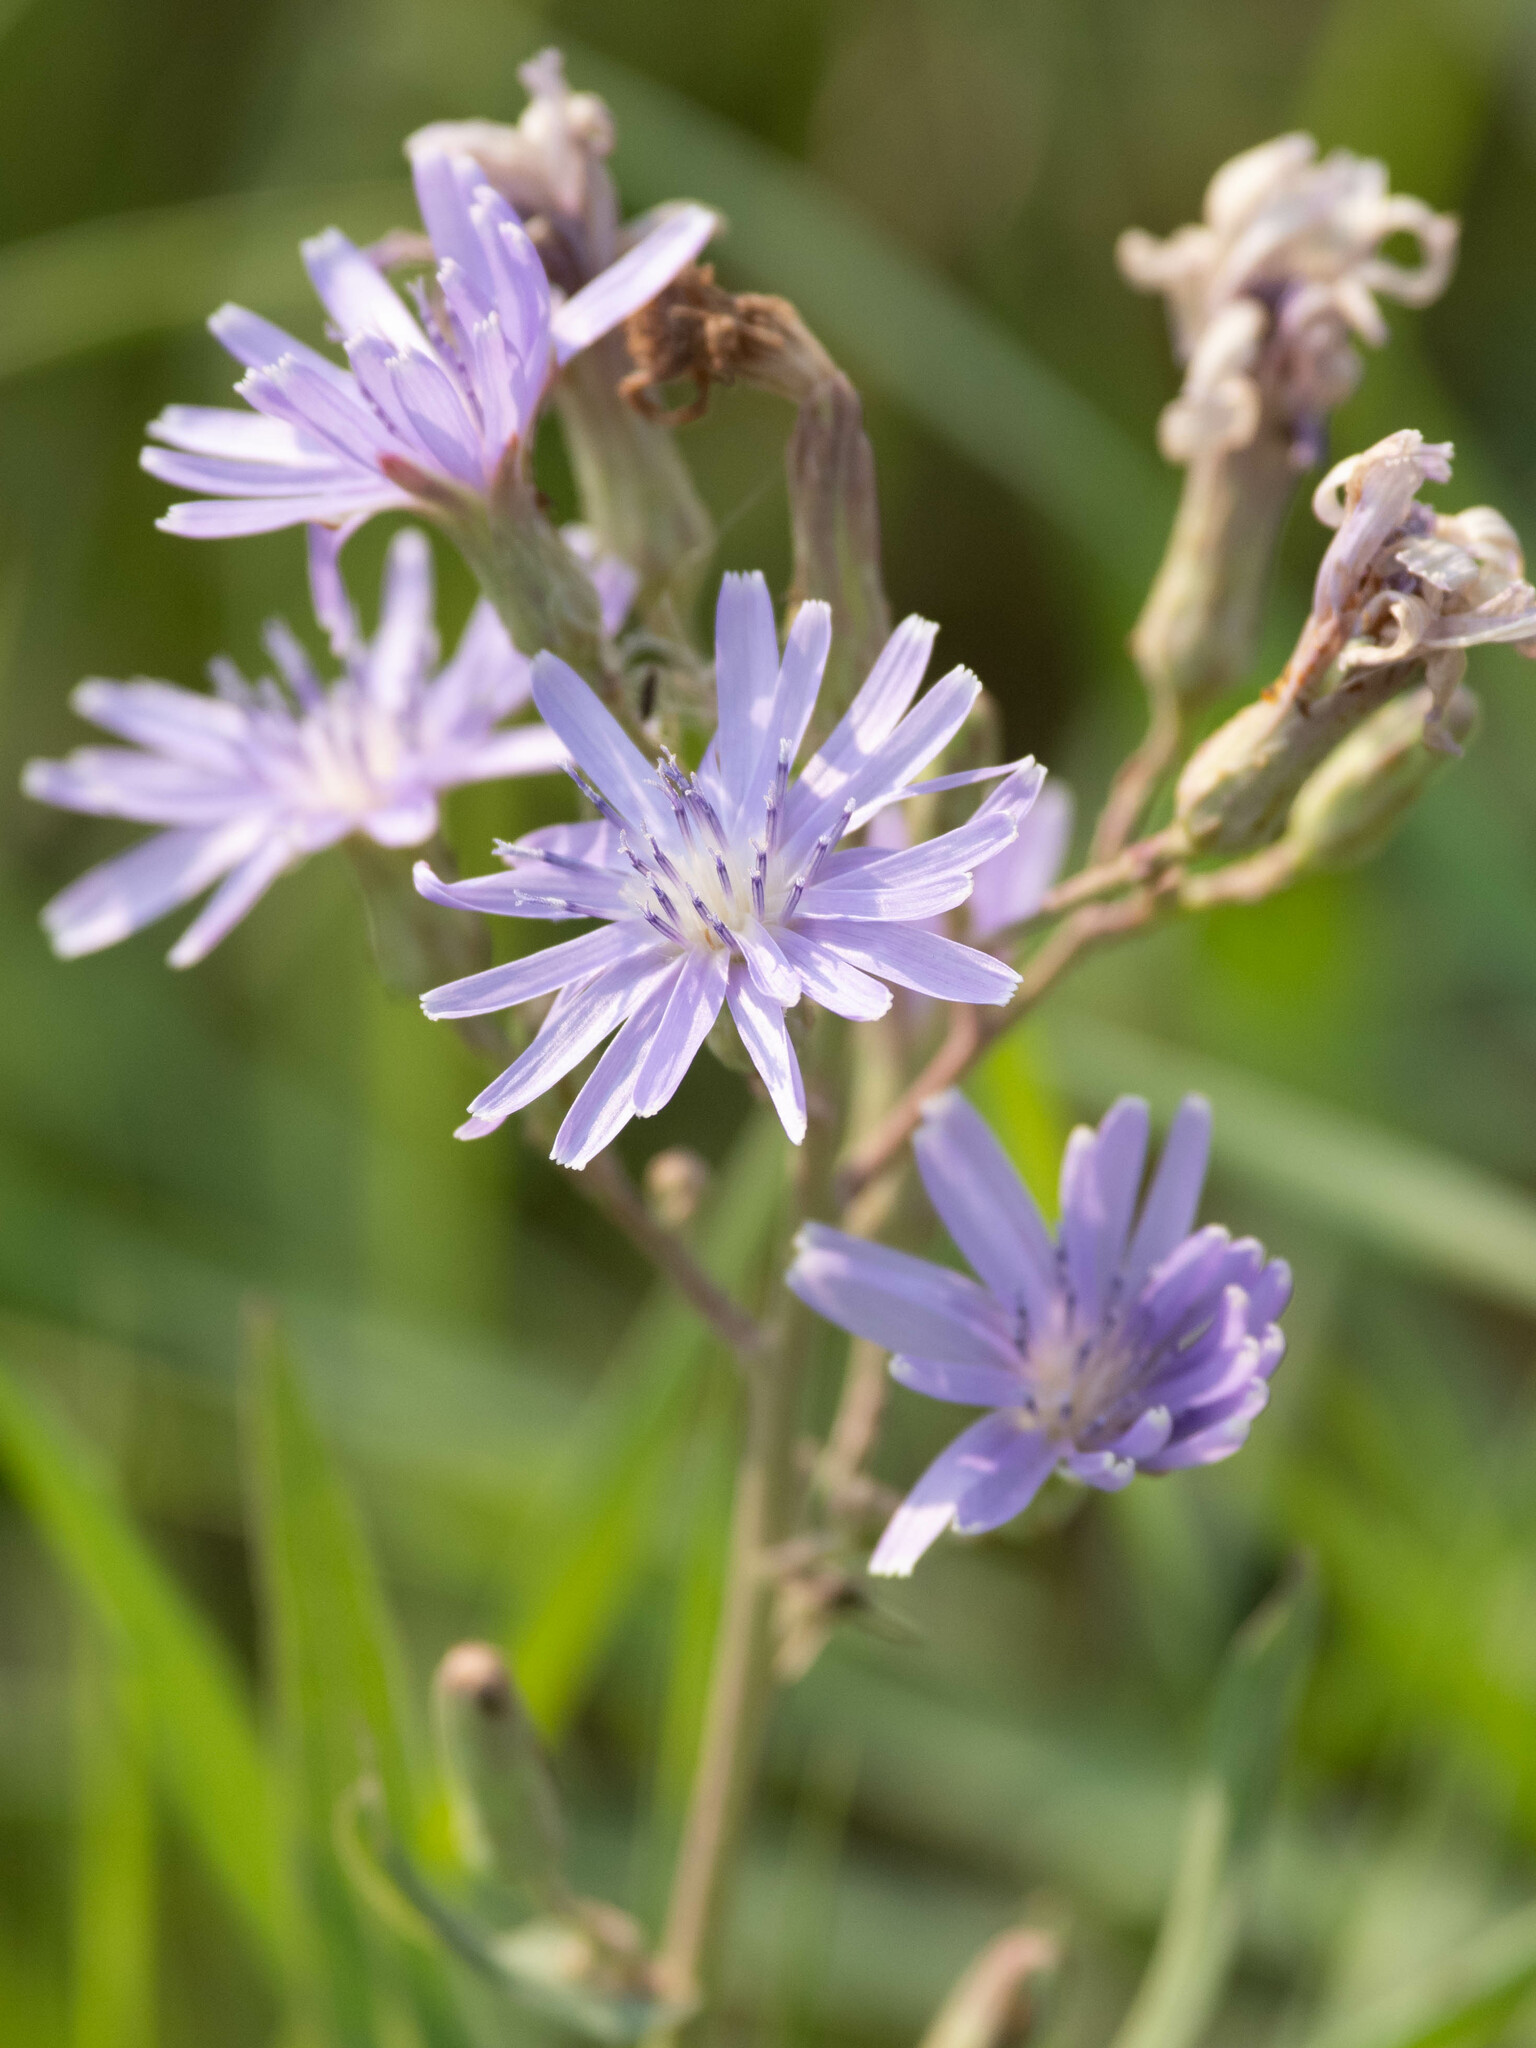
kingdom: Plantae
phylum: Tracheophyta
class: Magnoliopsida
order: Asterales
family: Asteraceae
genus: Lactuca
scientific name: Lactuca pulchella
